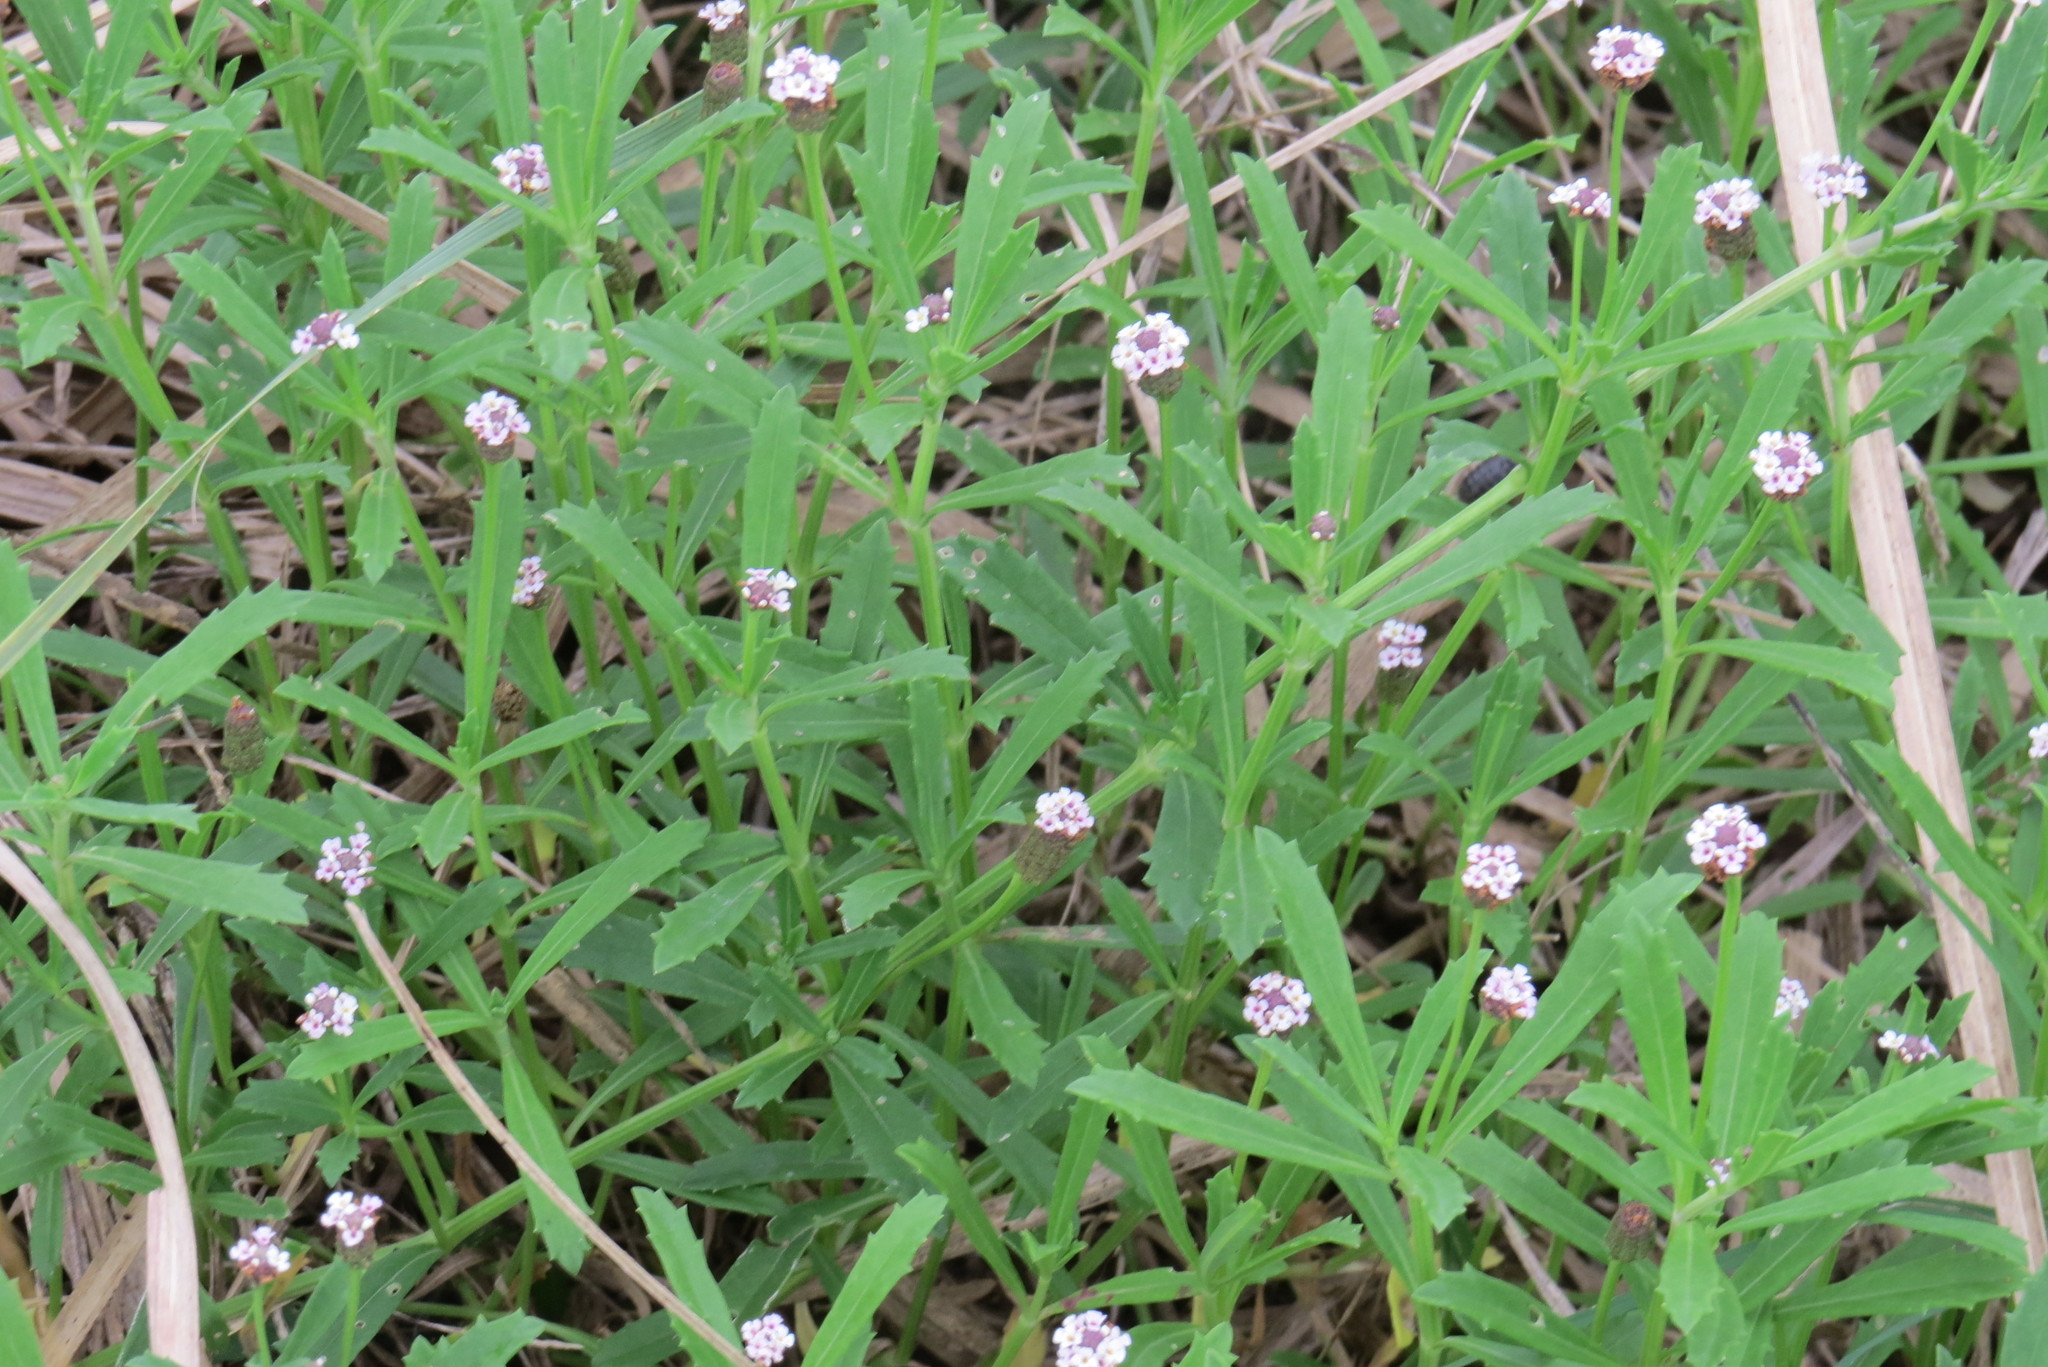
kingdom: Plantae
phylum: Tracheophyta
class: Magnoliopsida
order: Lamiales
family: Verbenaceae
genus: Phyla
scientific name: Phyla nodiflora
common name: Frogfruit
